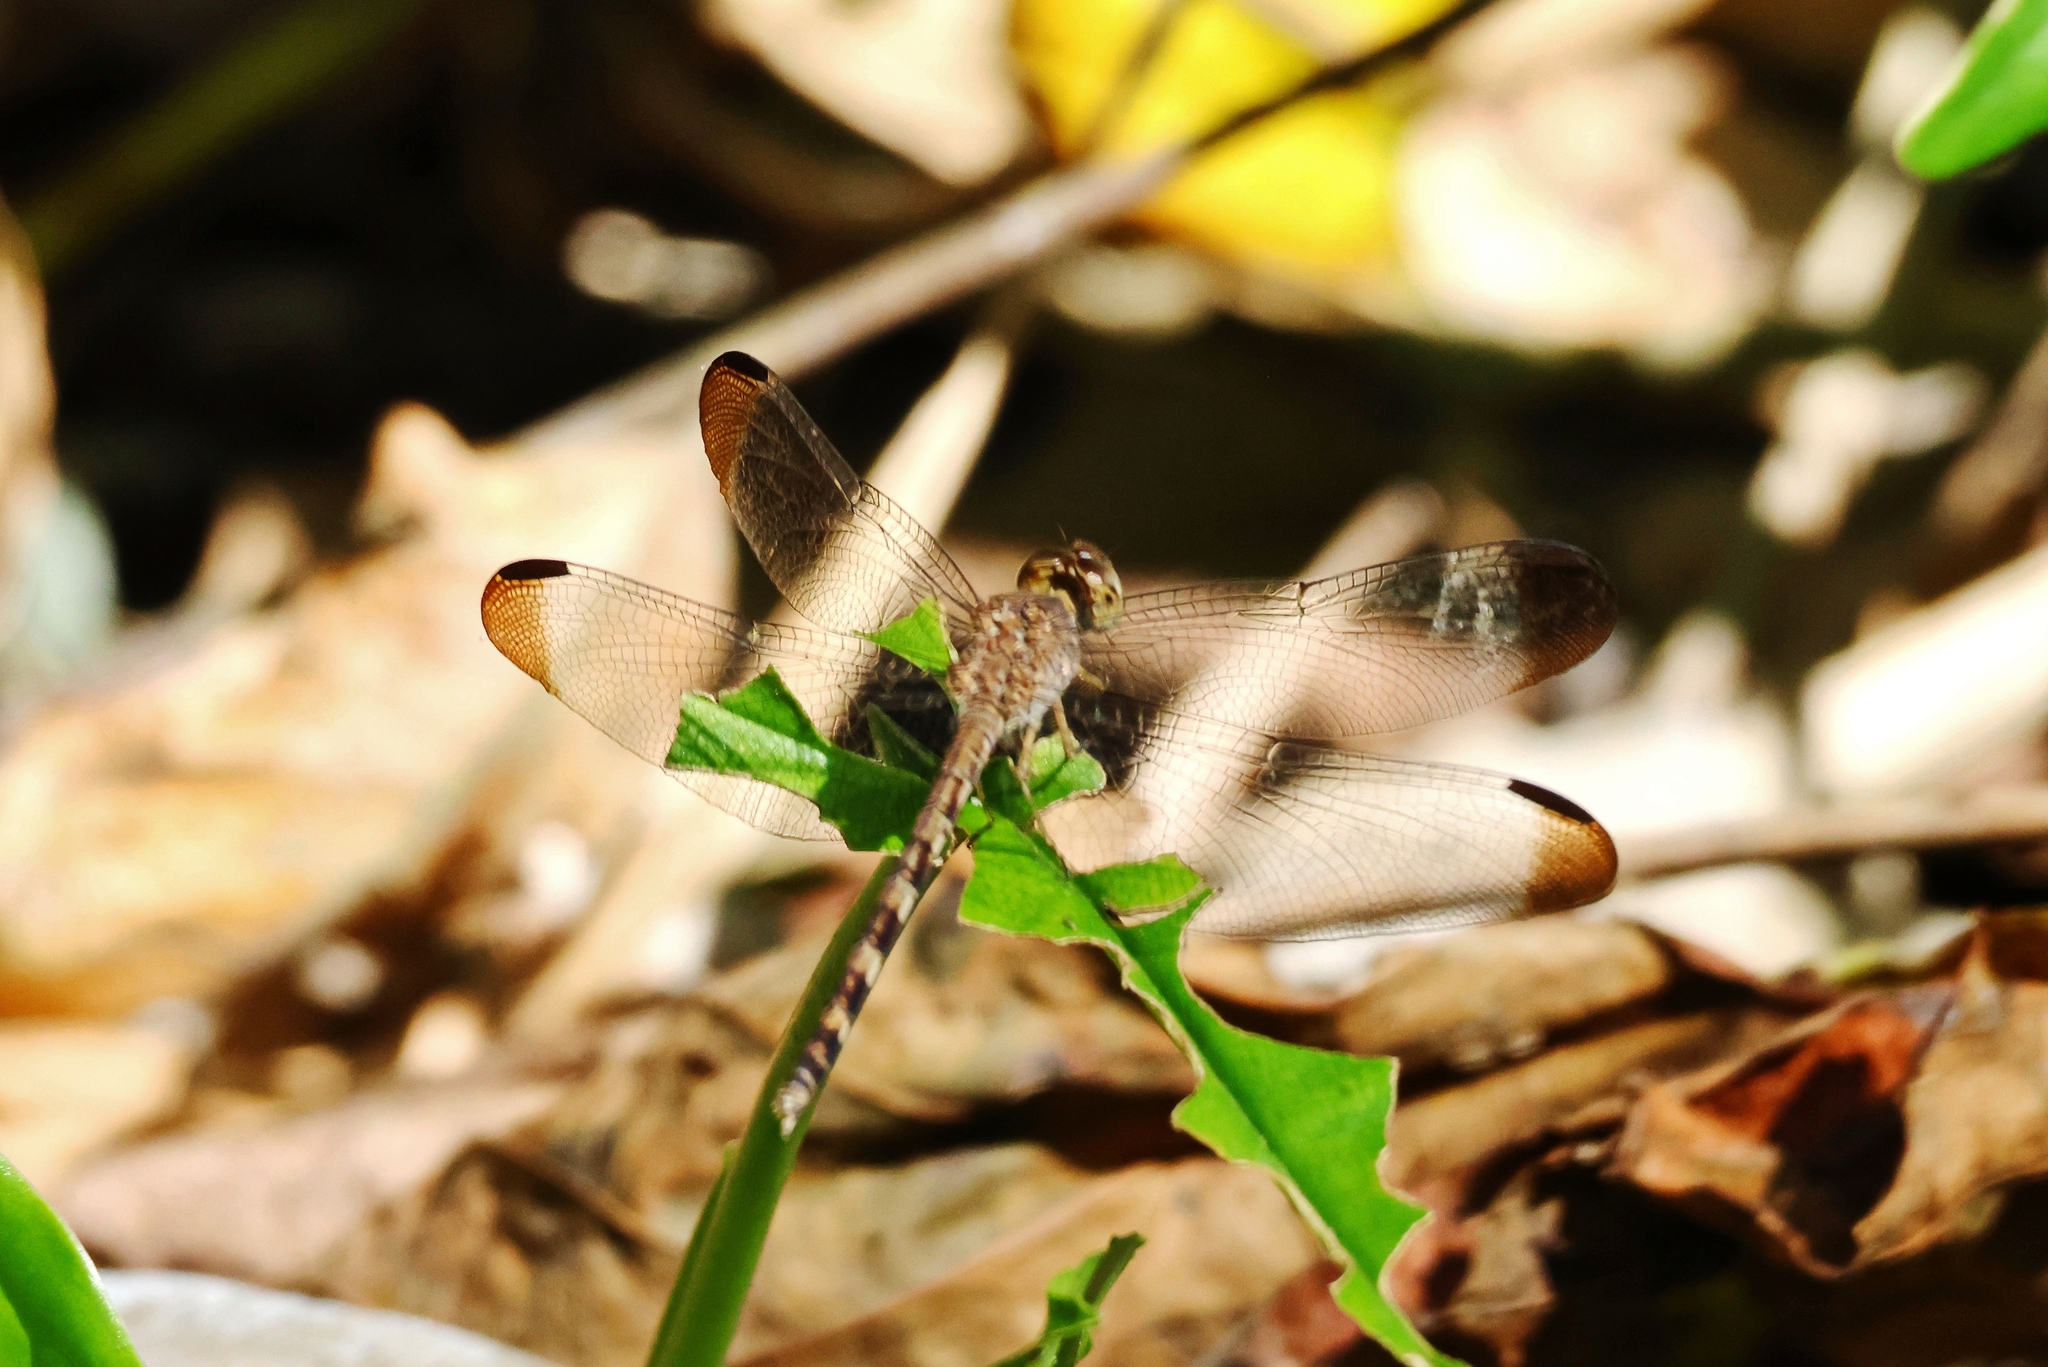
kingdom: Animalia
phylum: Arthropoda
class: Insecta
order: Odonata
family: Libellulidae
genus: Uracis
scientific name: Uracis imbuta
